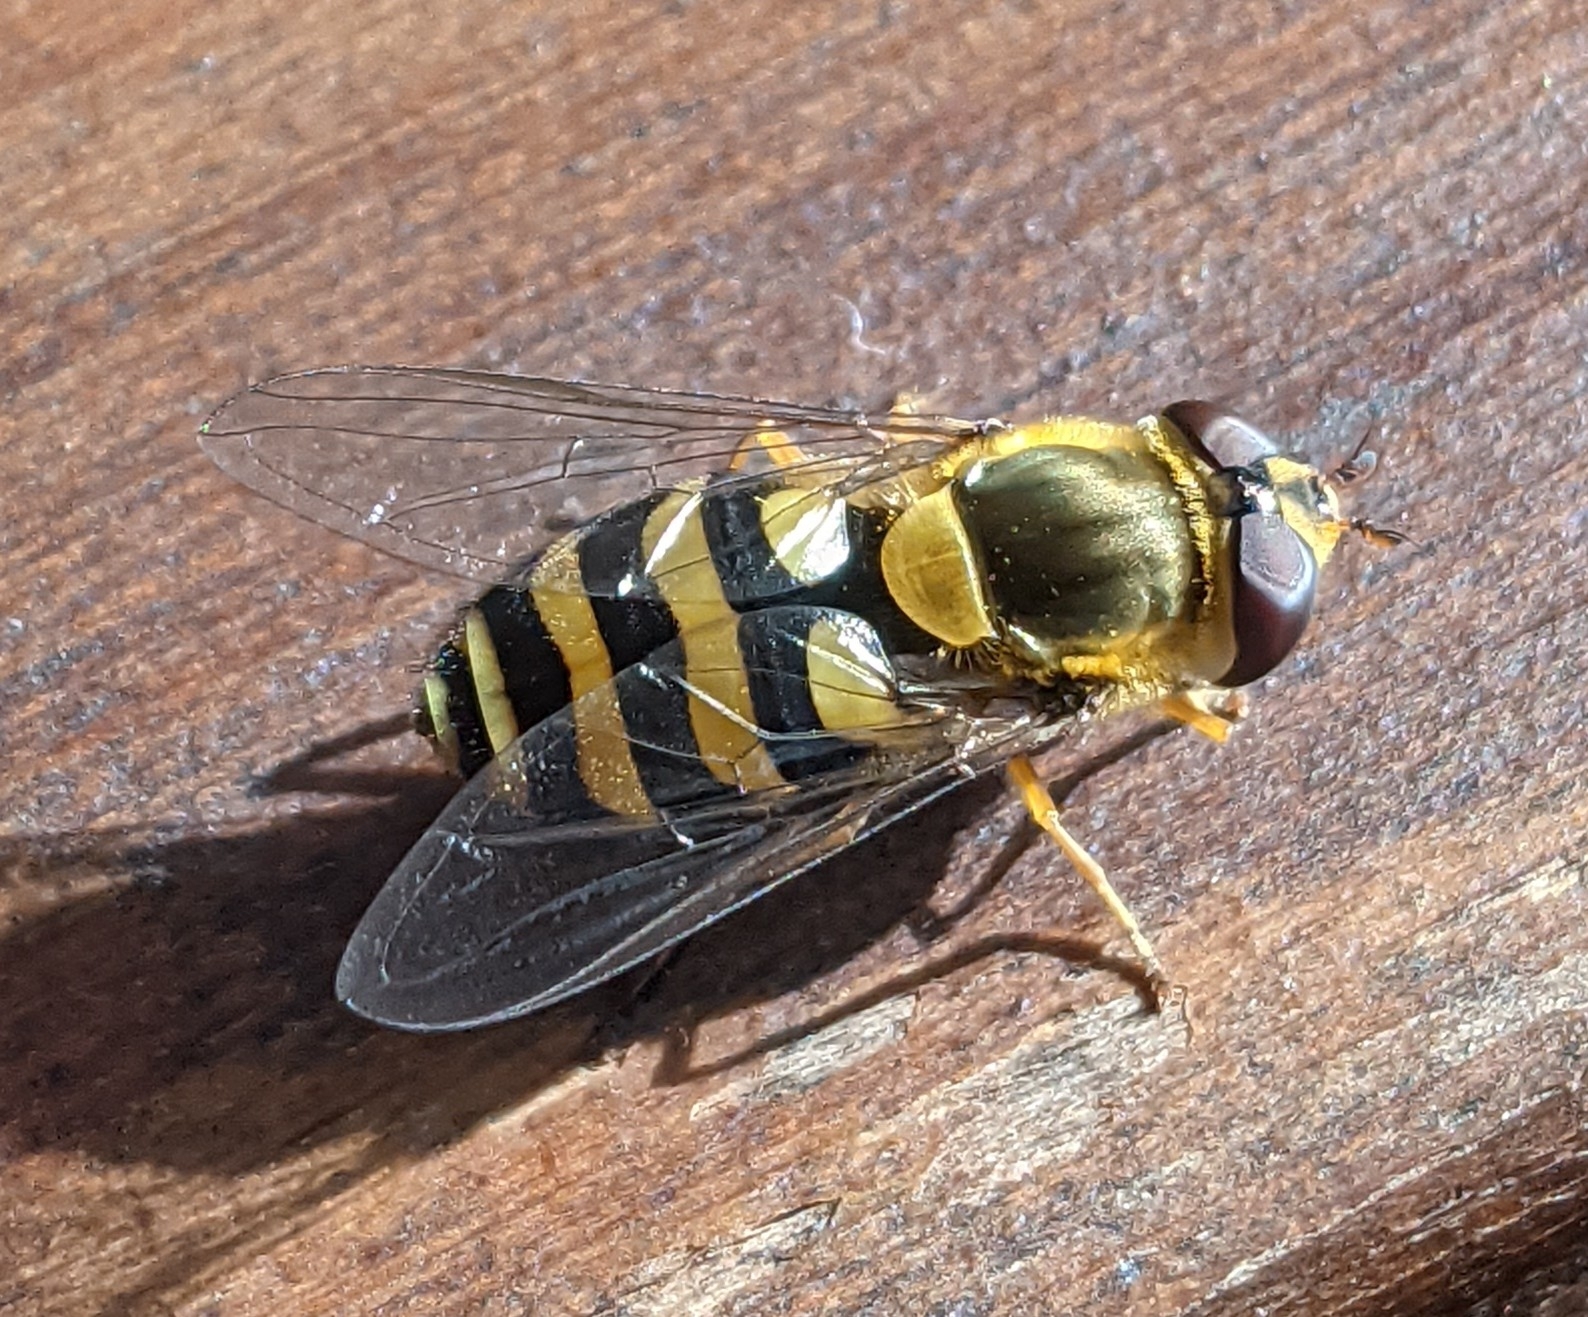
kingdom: Animalia
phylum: Arthropoda
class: Insecta
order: Diptera
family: Syrphidae
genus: Syrphus
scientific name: Syrphus
